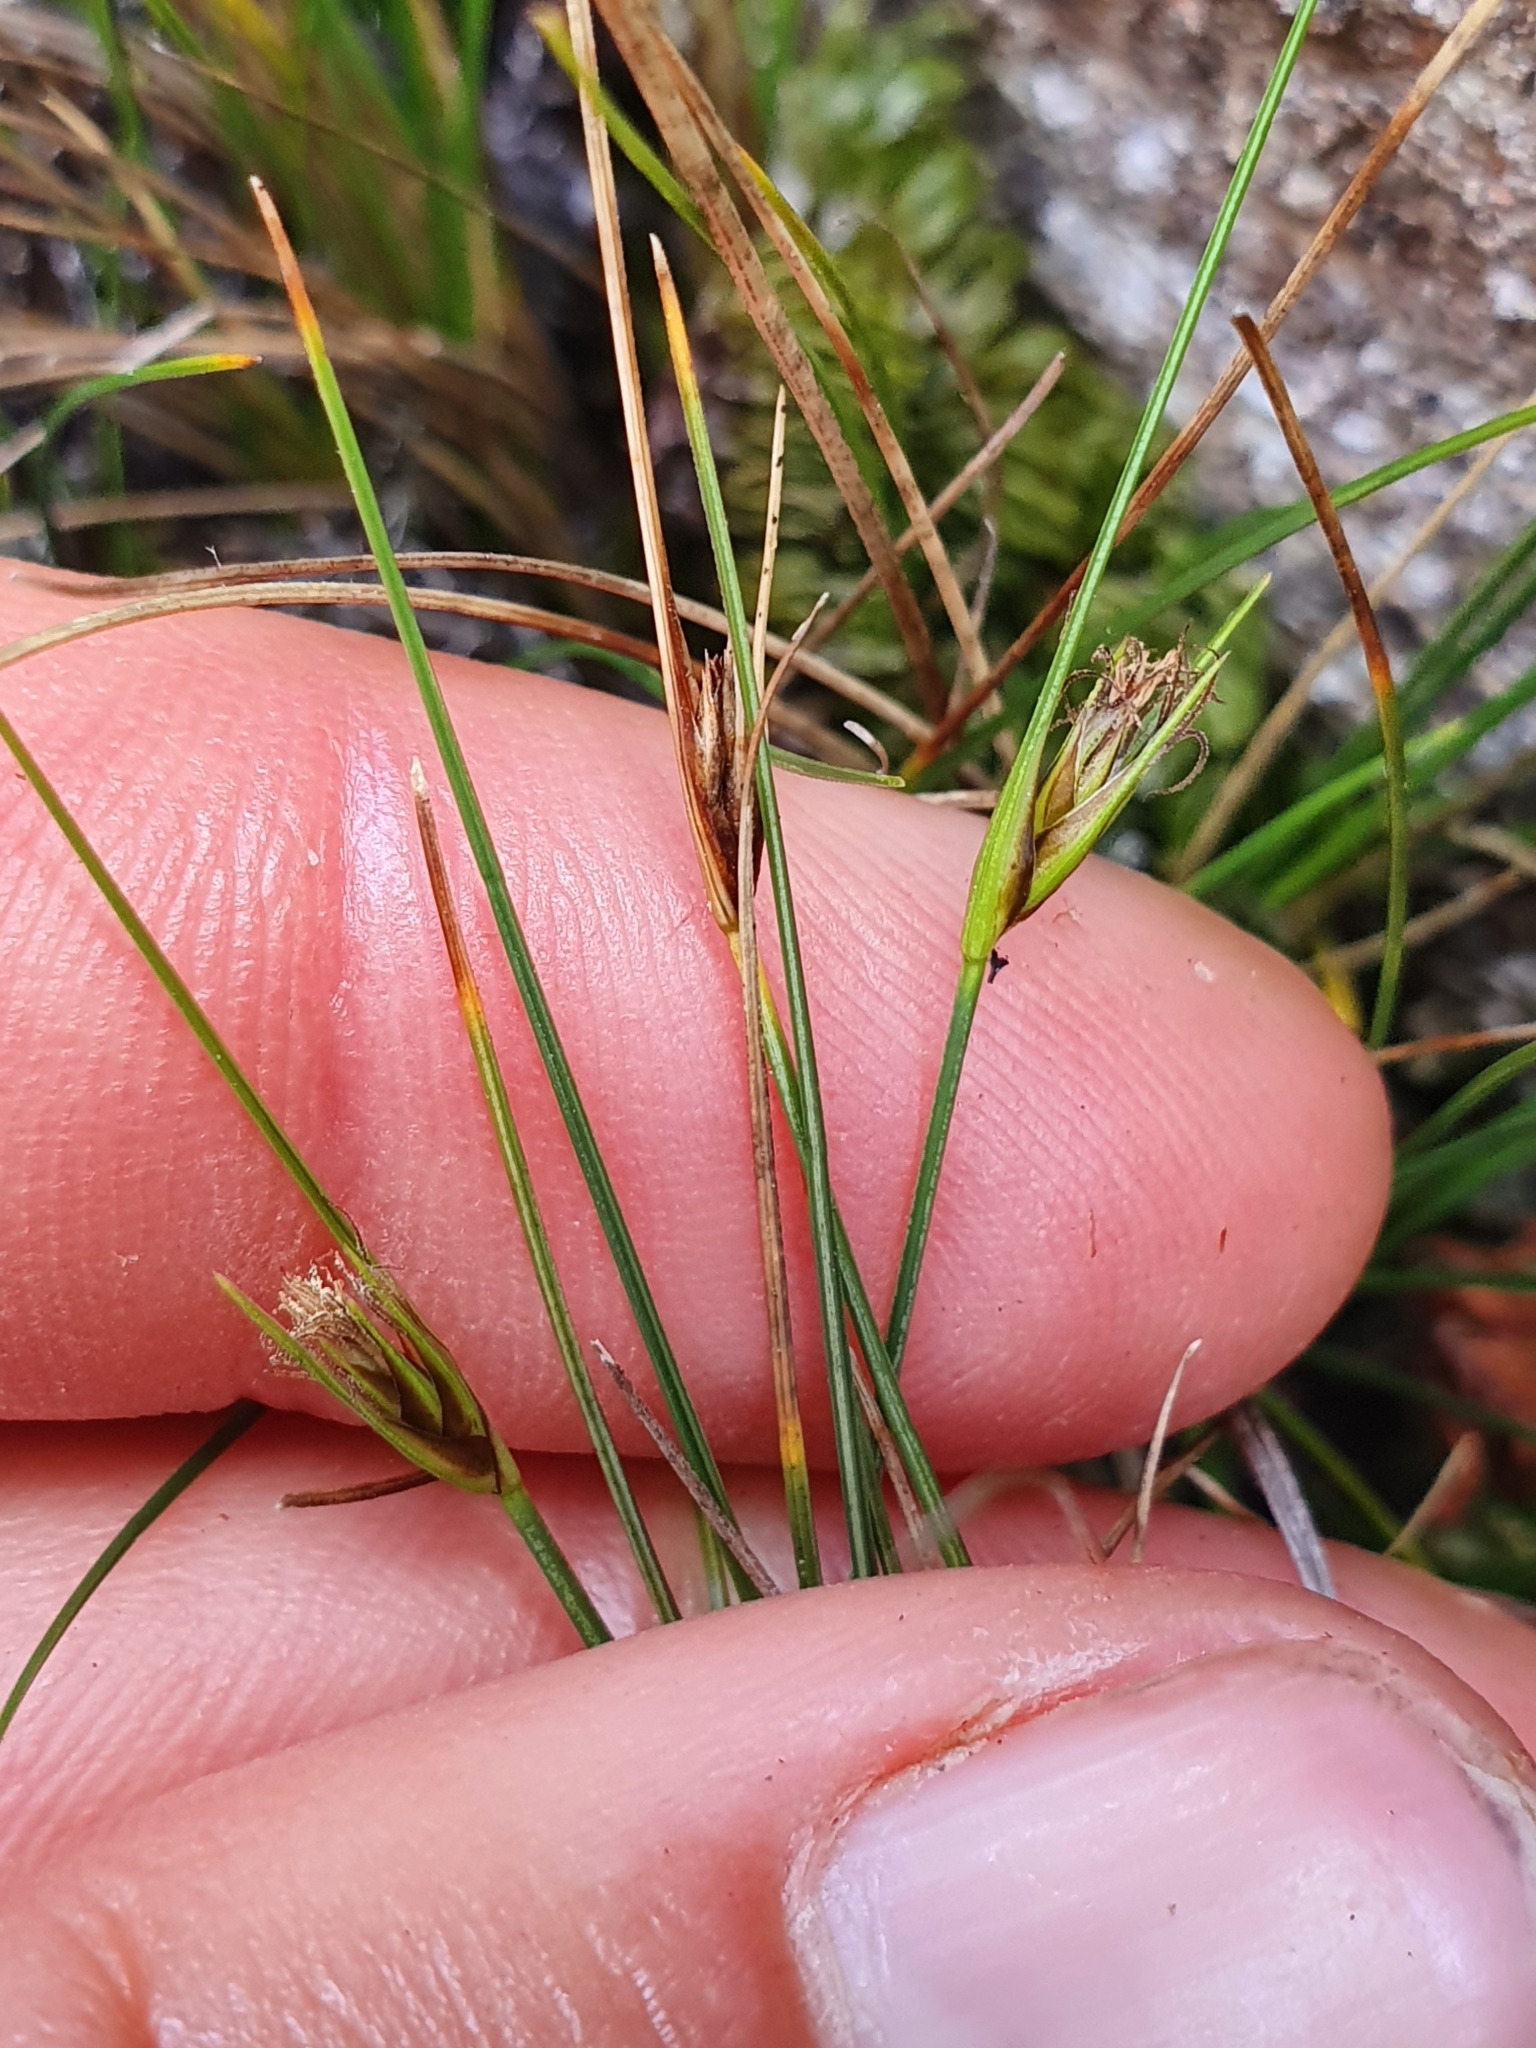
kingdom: Plantae
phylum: Tracheophyta
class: Liliopsida
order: Poales
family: Cyperaceae
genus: Carex
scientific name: Carex acicularis
